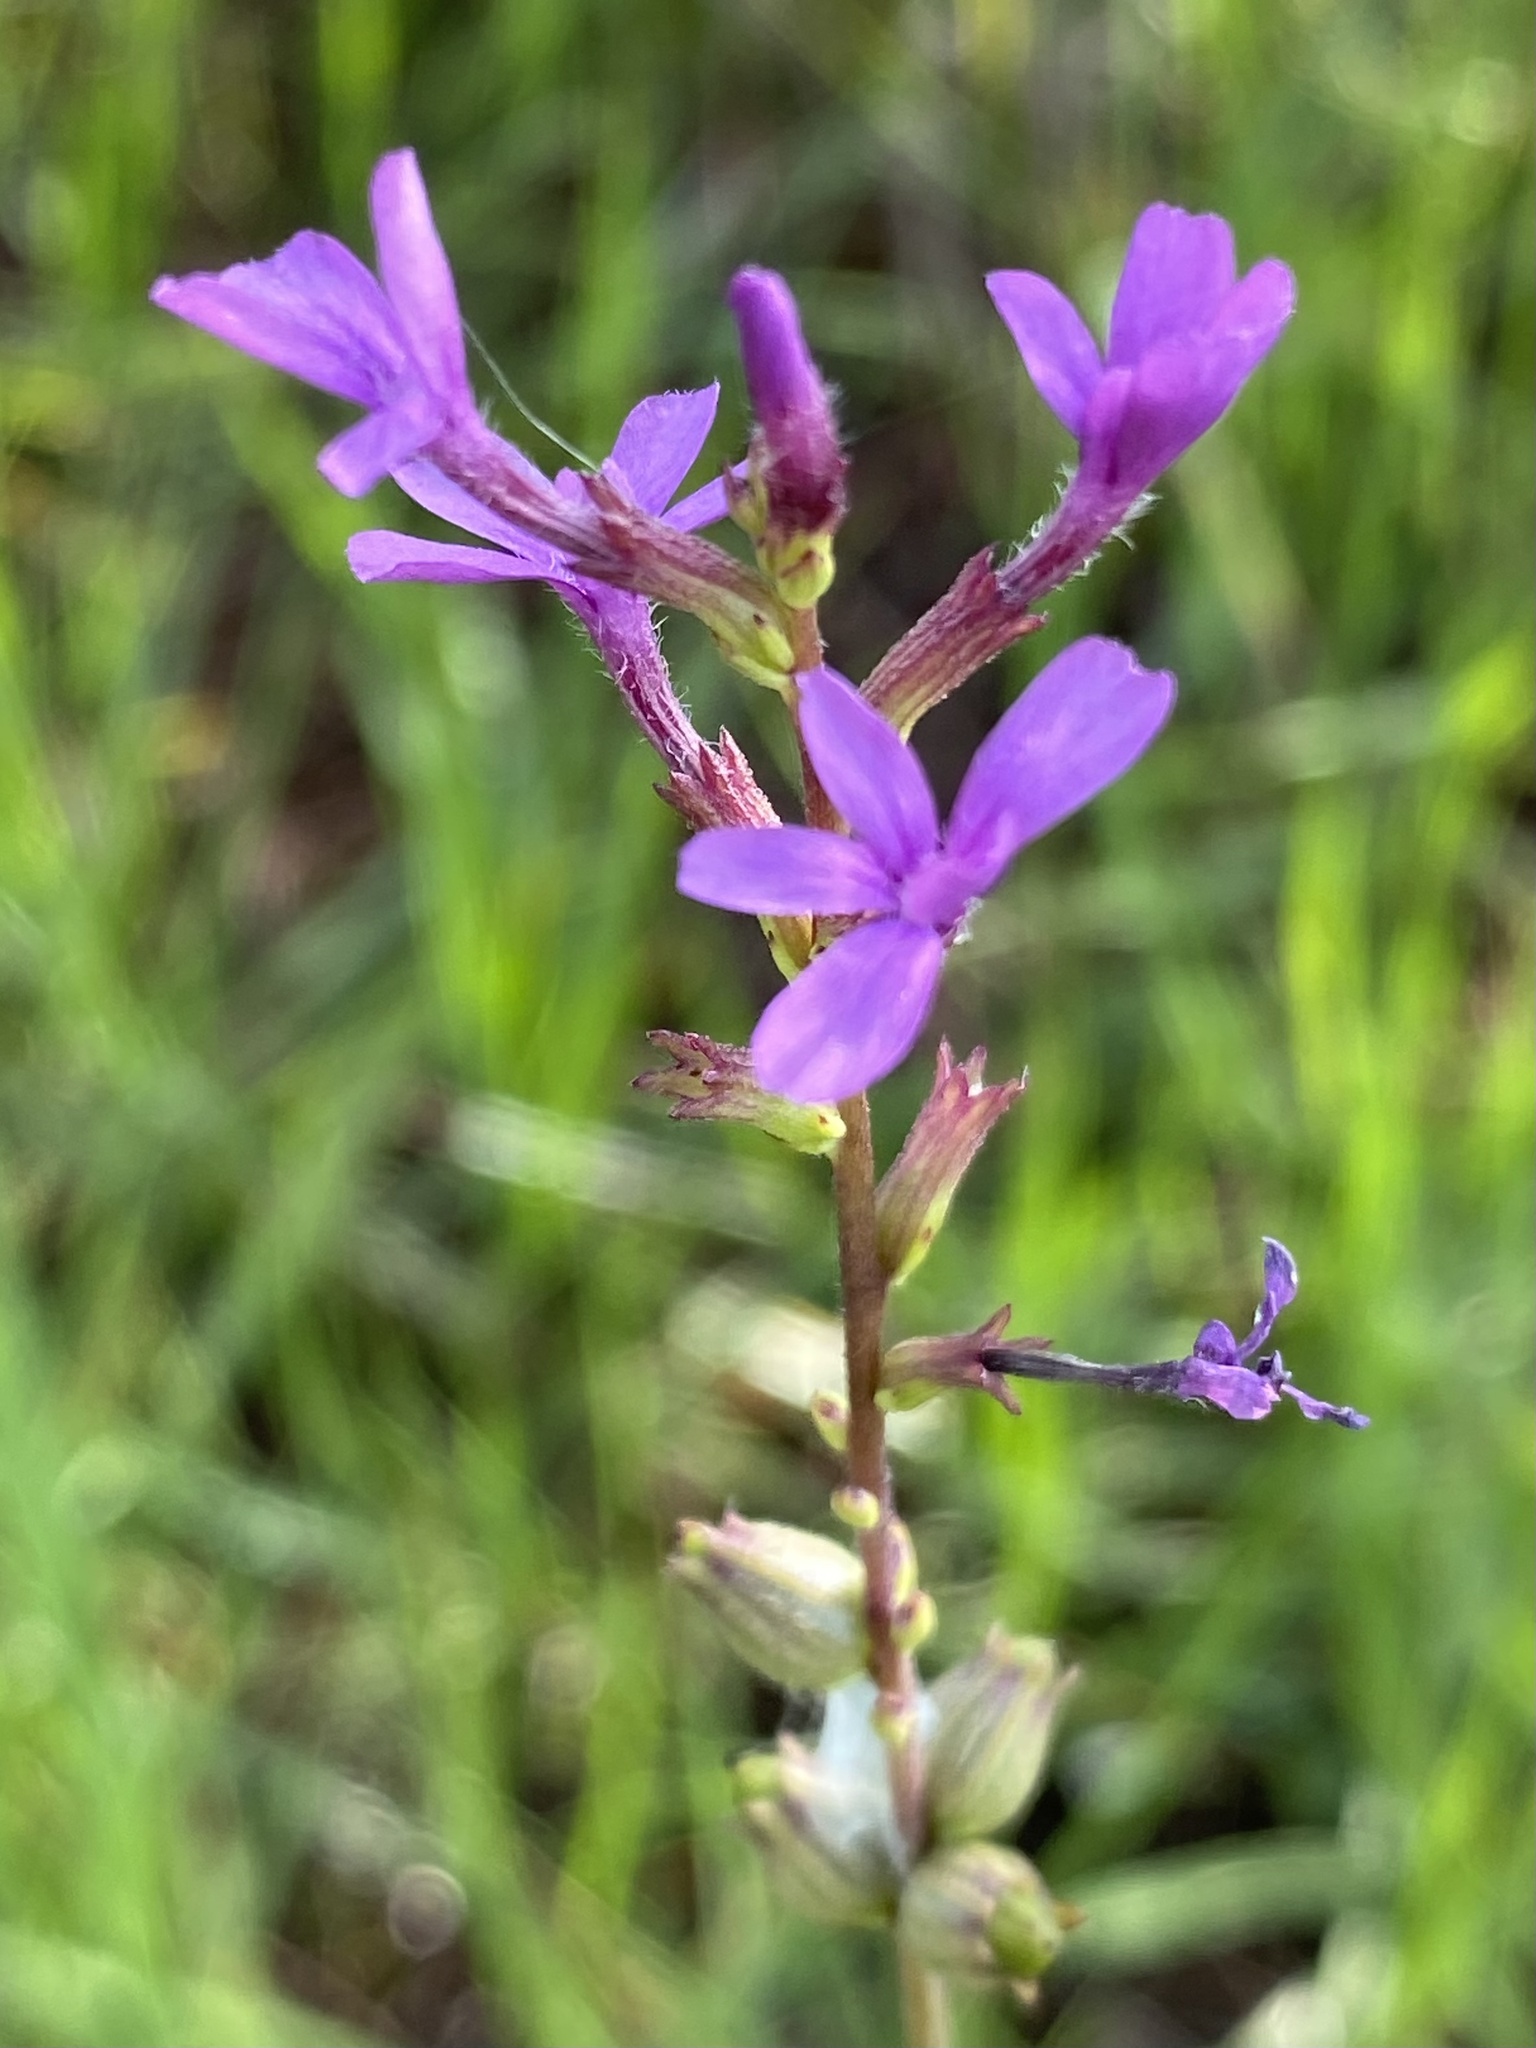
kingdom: Plantae
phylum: Tracheophyta
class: Magnoliopsida
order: Lamiales
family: Orobanchaceae
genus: Buchnera
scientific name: Buchnera floridana
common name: Florida bluehearts
